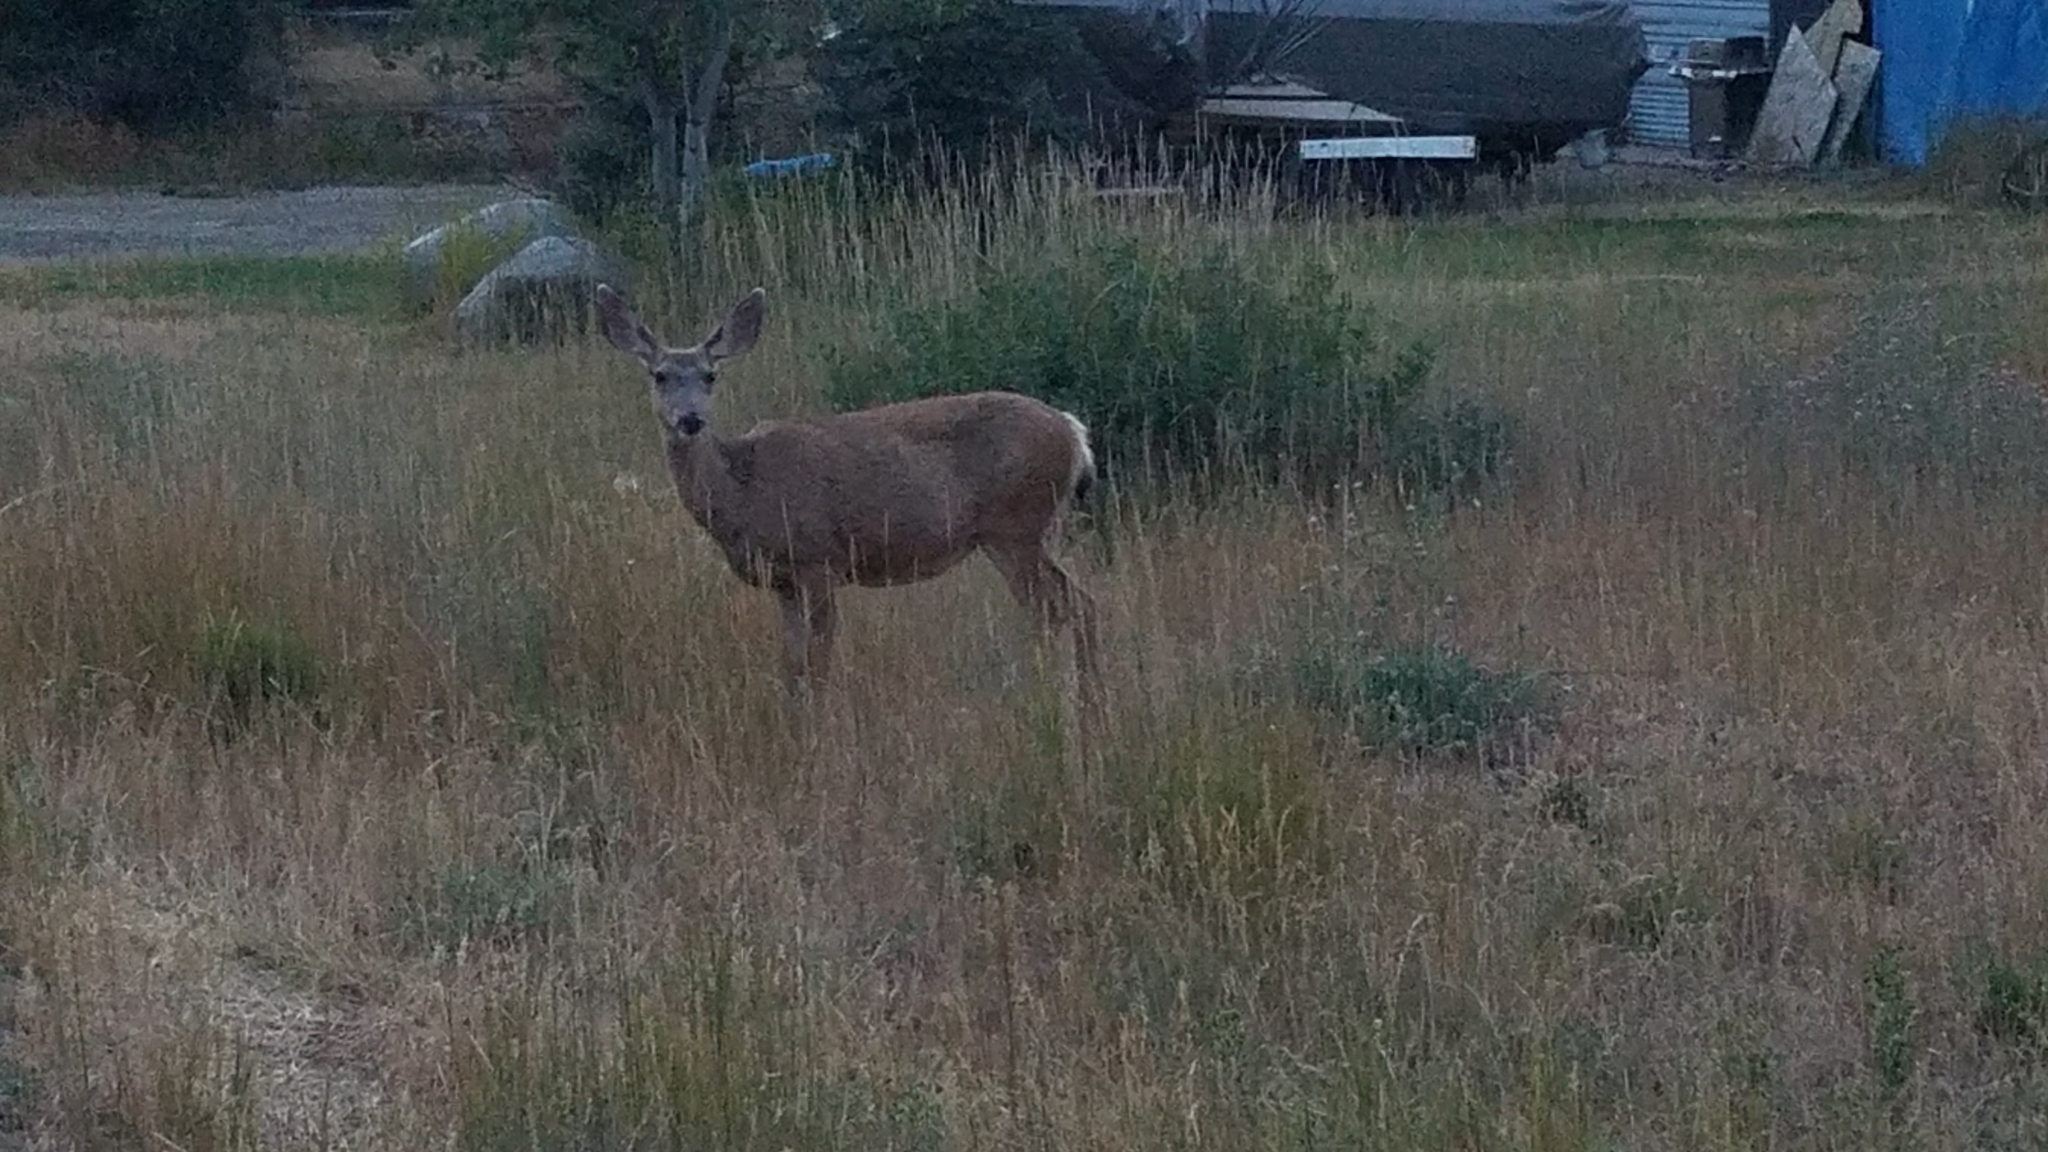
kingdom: Animalia
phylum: Chordata
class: Mammalia
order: Artiodactyla
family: Cervidae
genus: Odocoileus
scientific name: Odocoileus hemionus
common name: Mule deer
